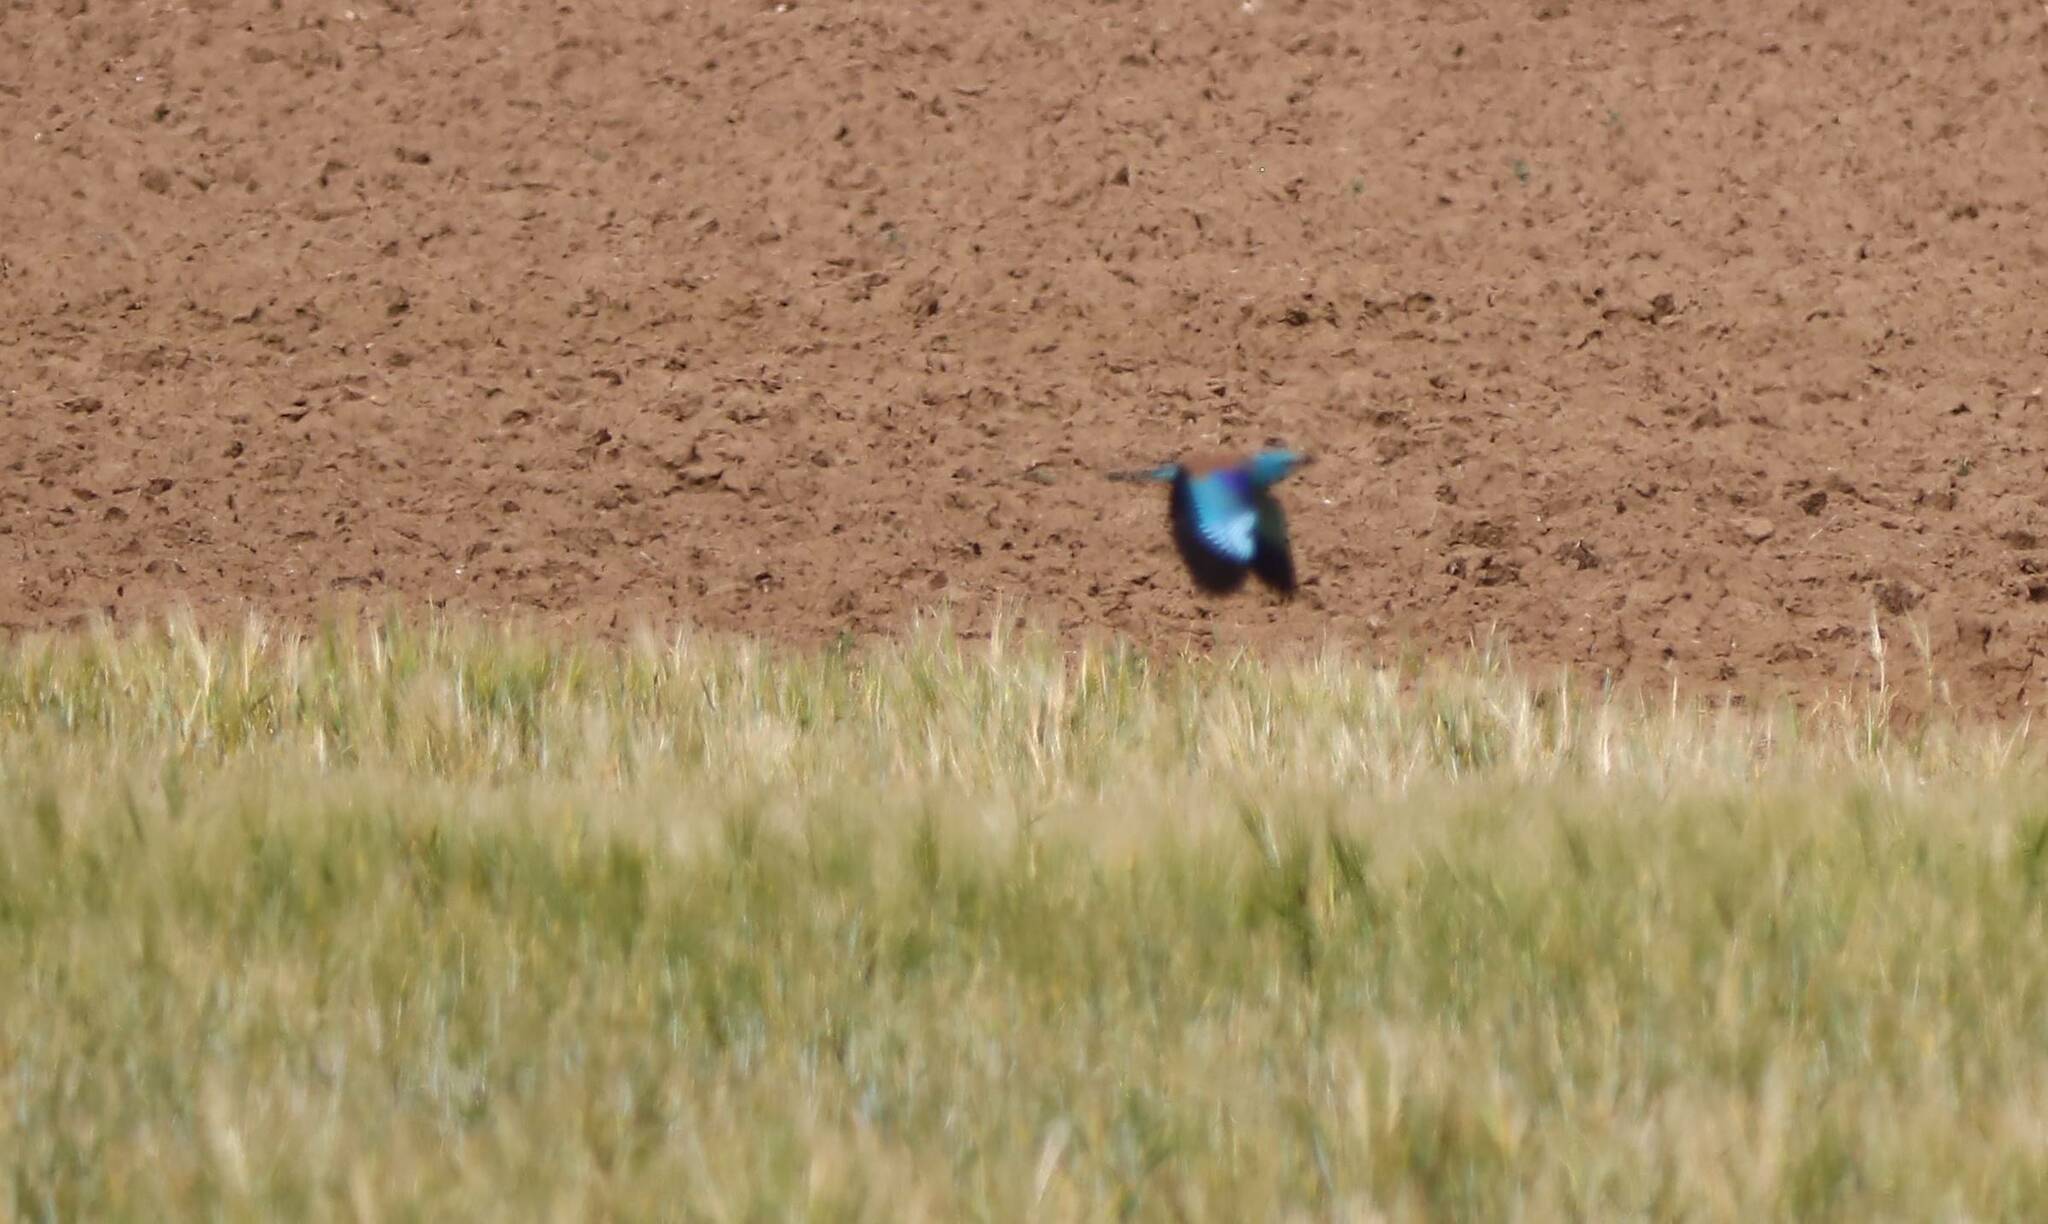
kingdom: Animalia
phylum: Chordata
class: Aves
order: Coraciiformes
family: Coraciidae
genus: Coracias
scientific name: Coracias garrulus
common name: European roller
